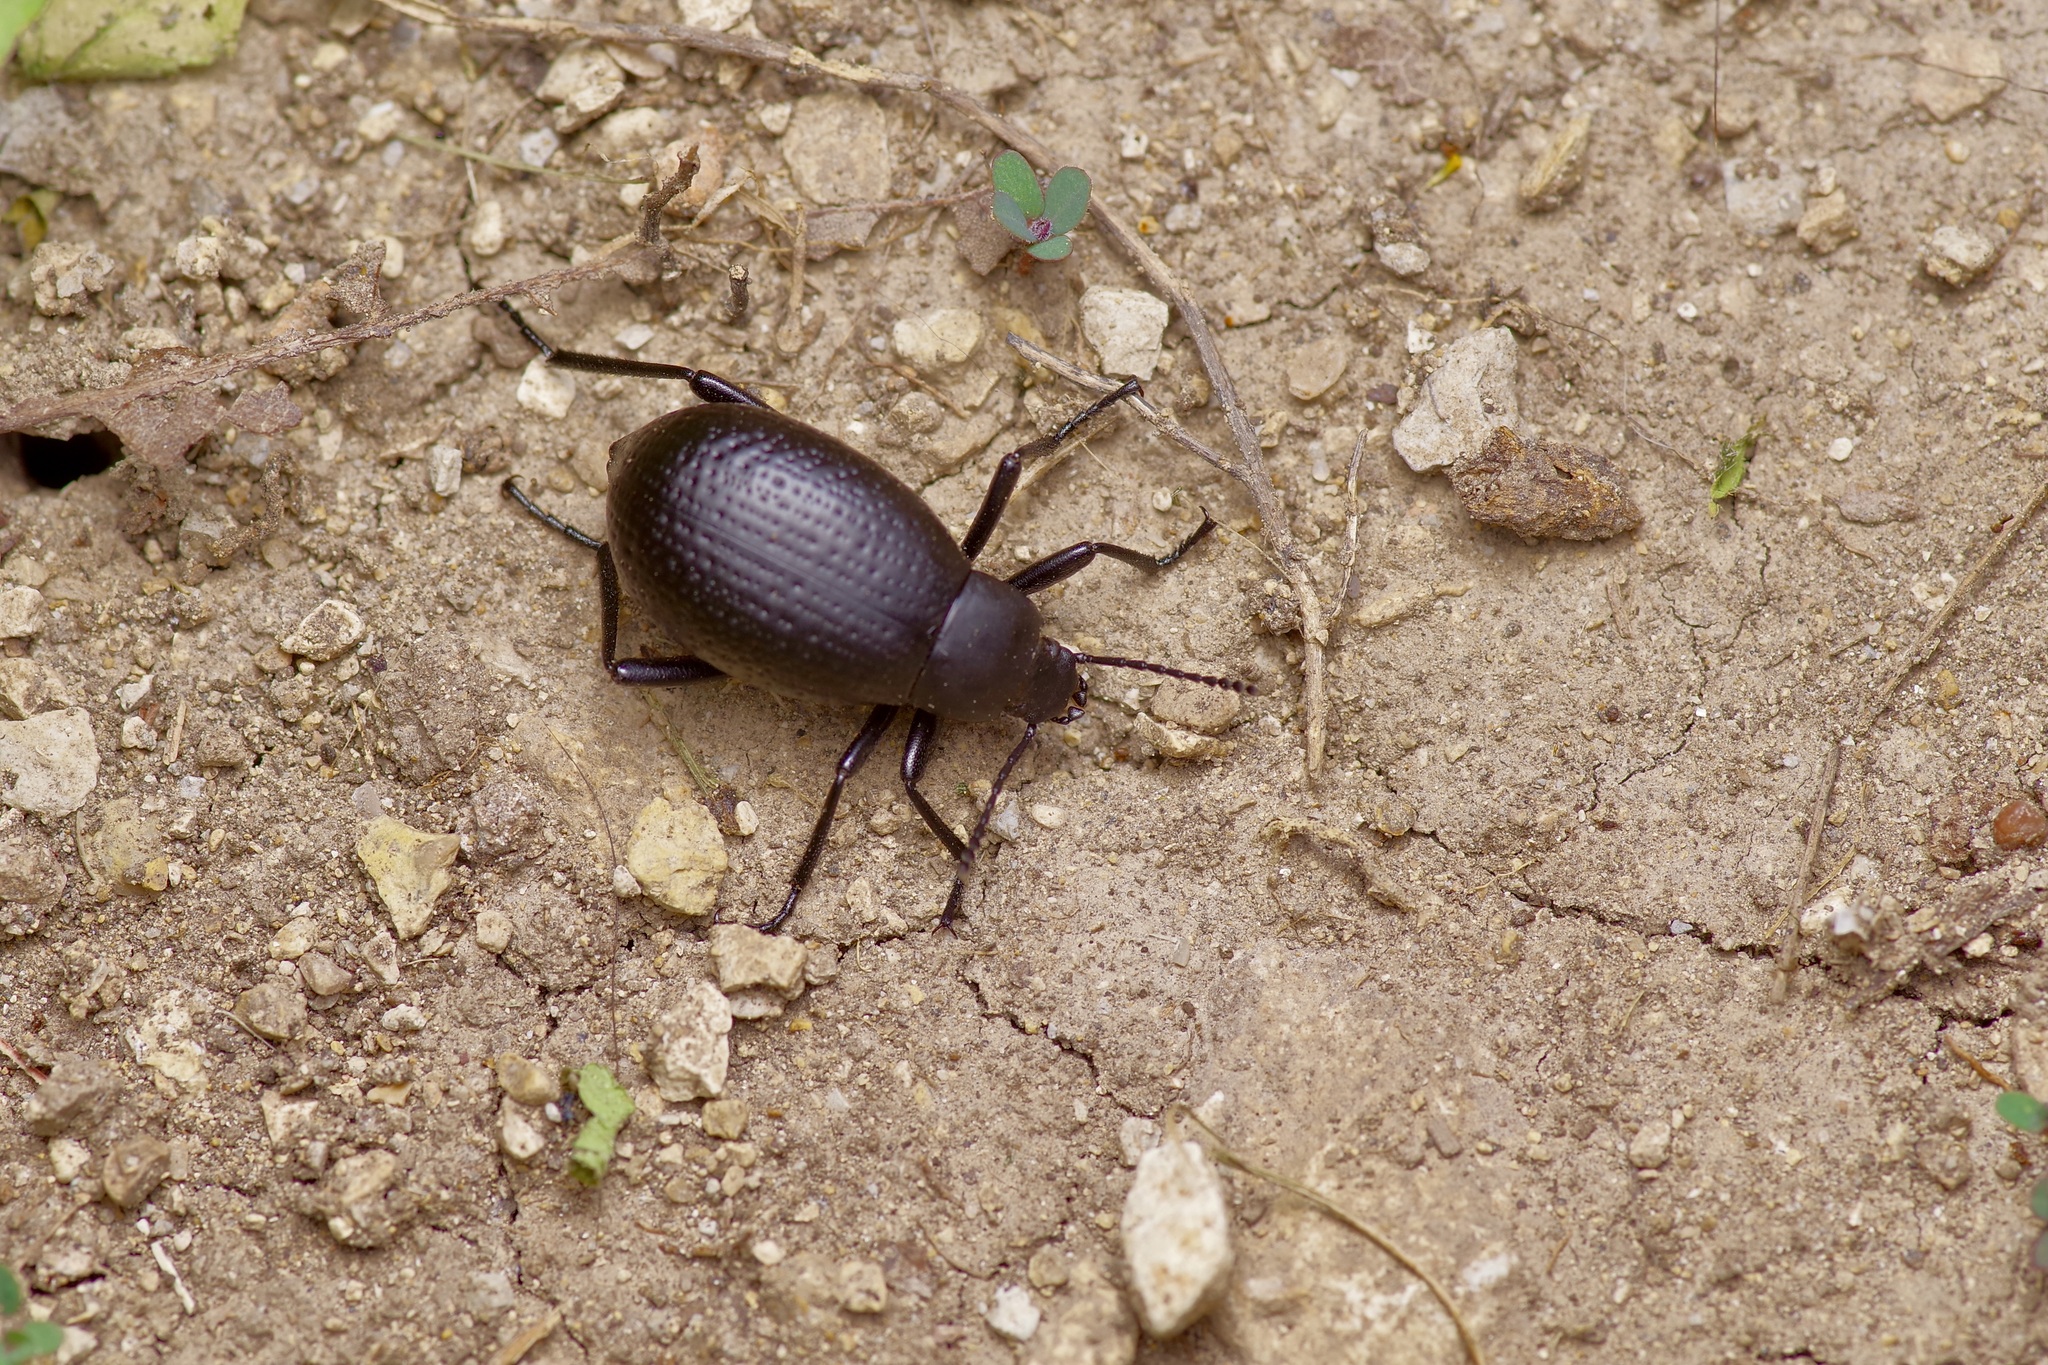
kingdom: Animalia
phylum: Arthropoda
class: Insecta
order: Coleoptera
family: Tenebrionidae
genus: Eleodes
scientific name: Eleodes goryi
